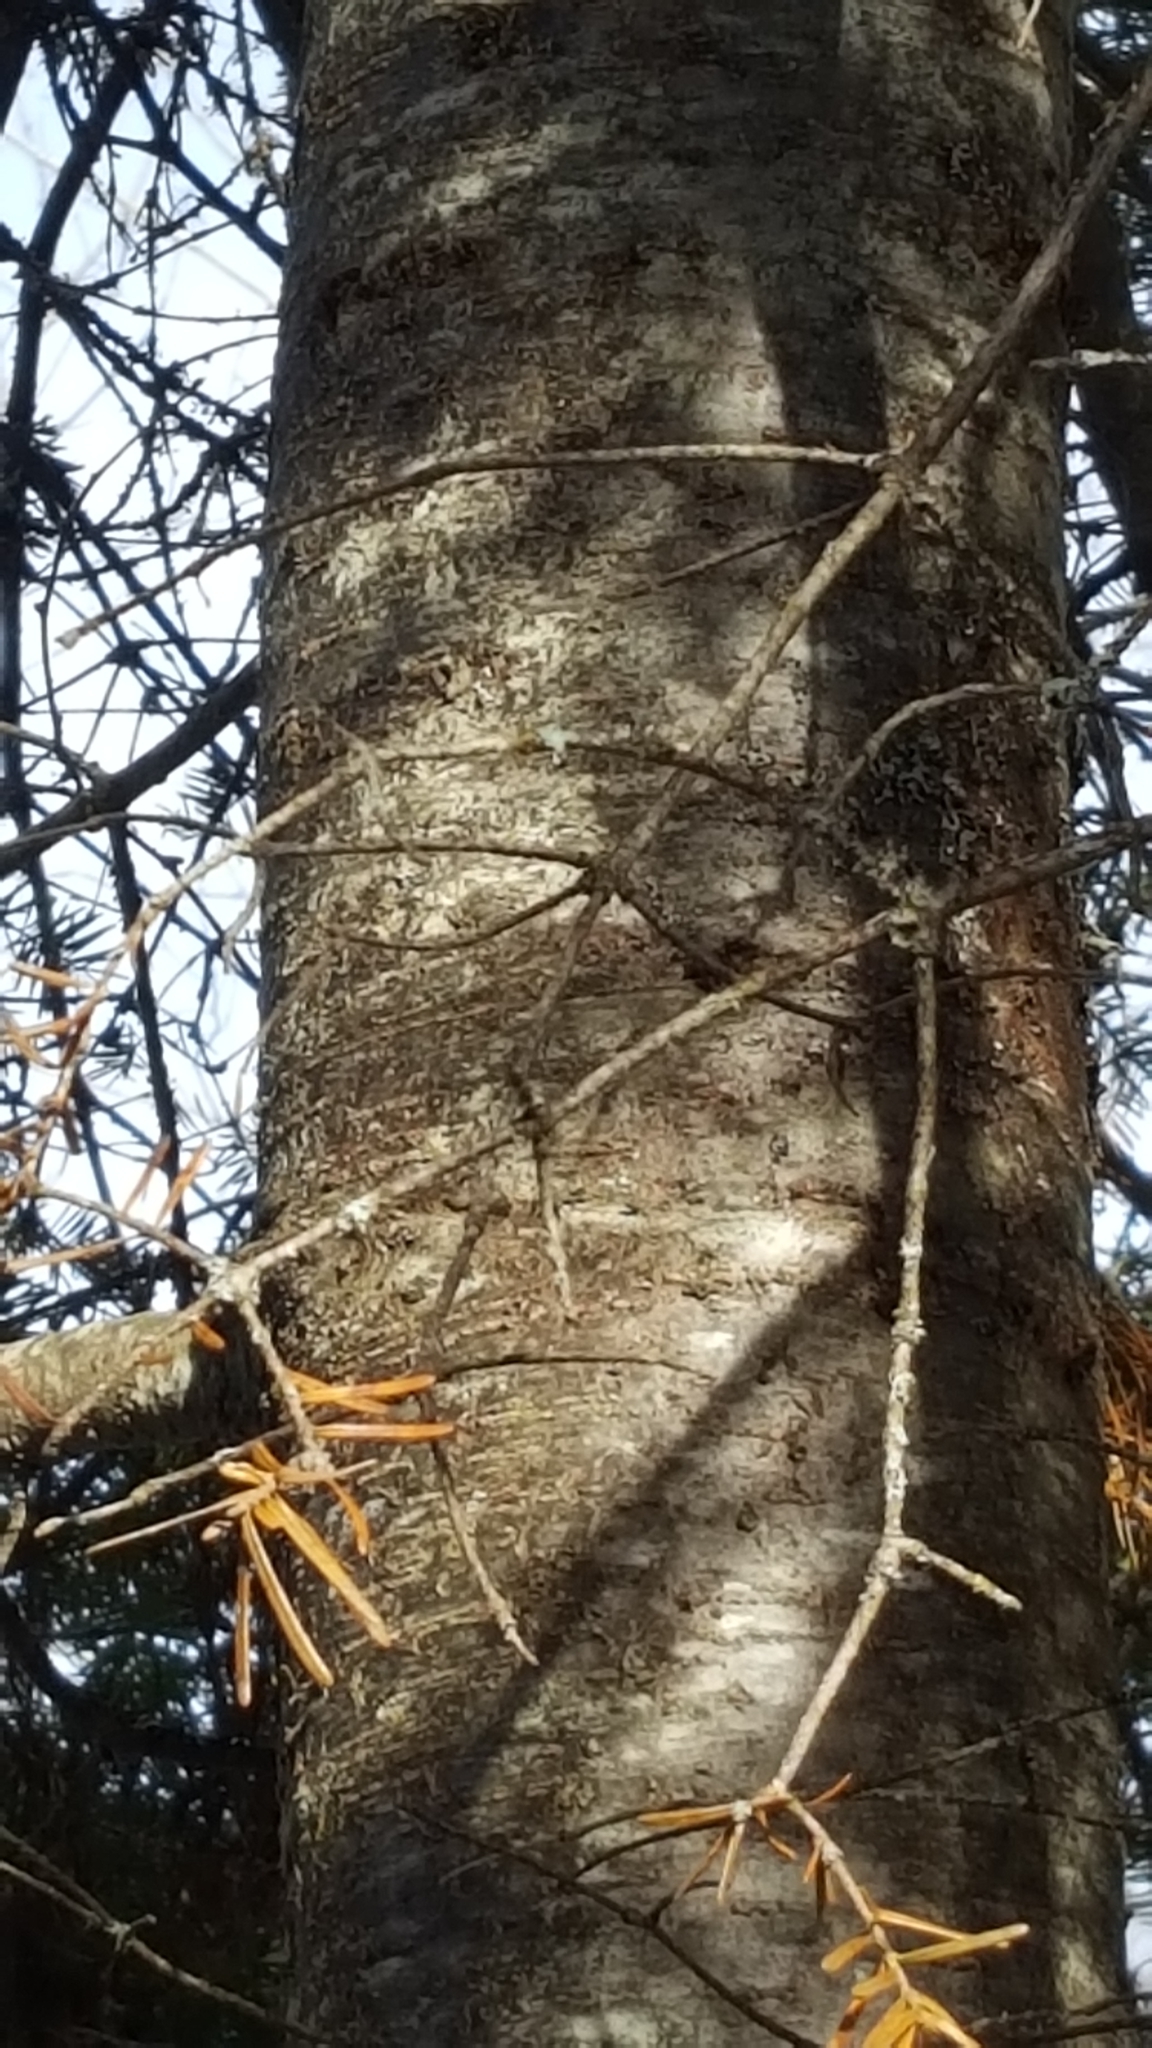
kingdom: Plantae
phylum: Tracheophyta
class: Pinopsida
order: Pinales
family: Pinaceae
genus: Abies
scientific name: Abies balsamea
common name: Balsam fir
